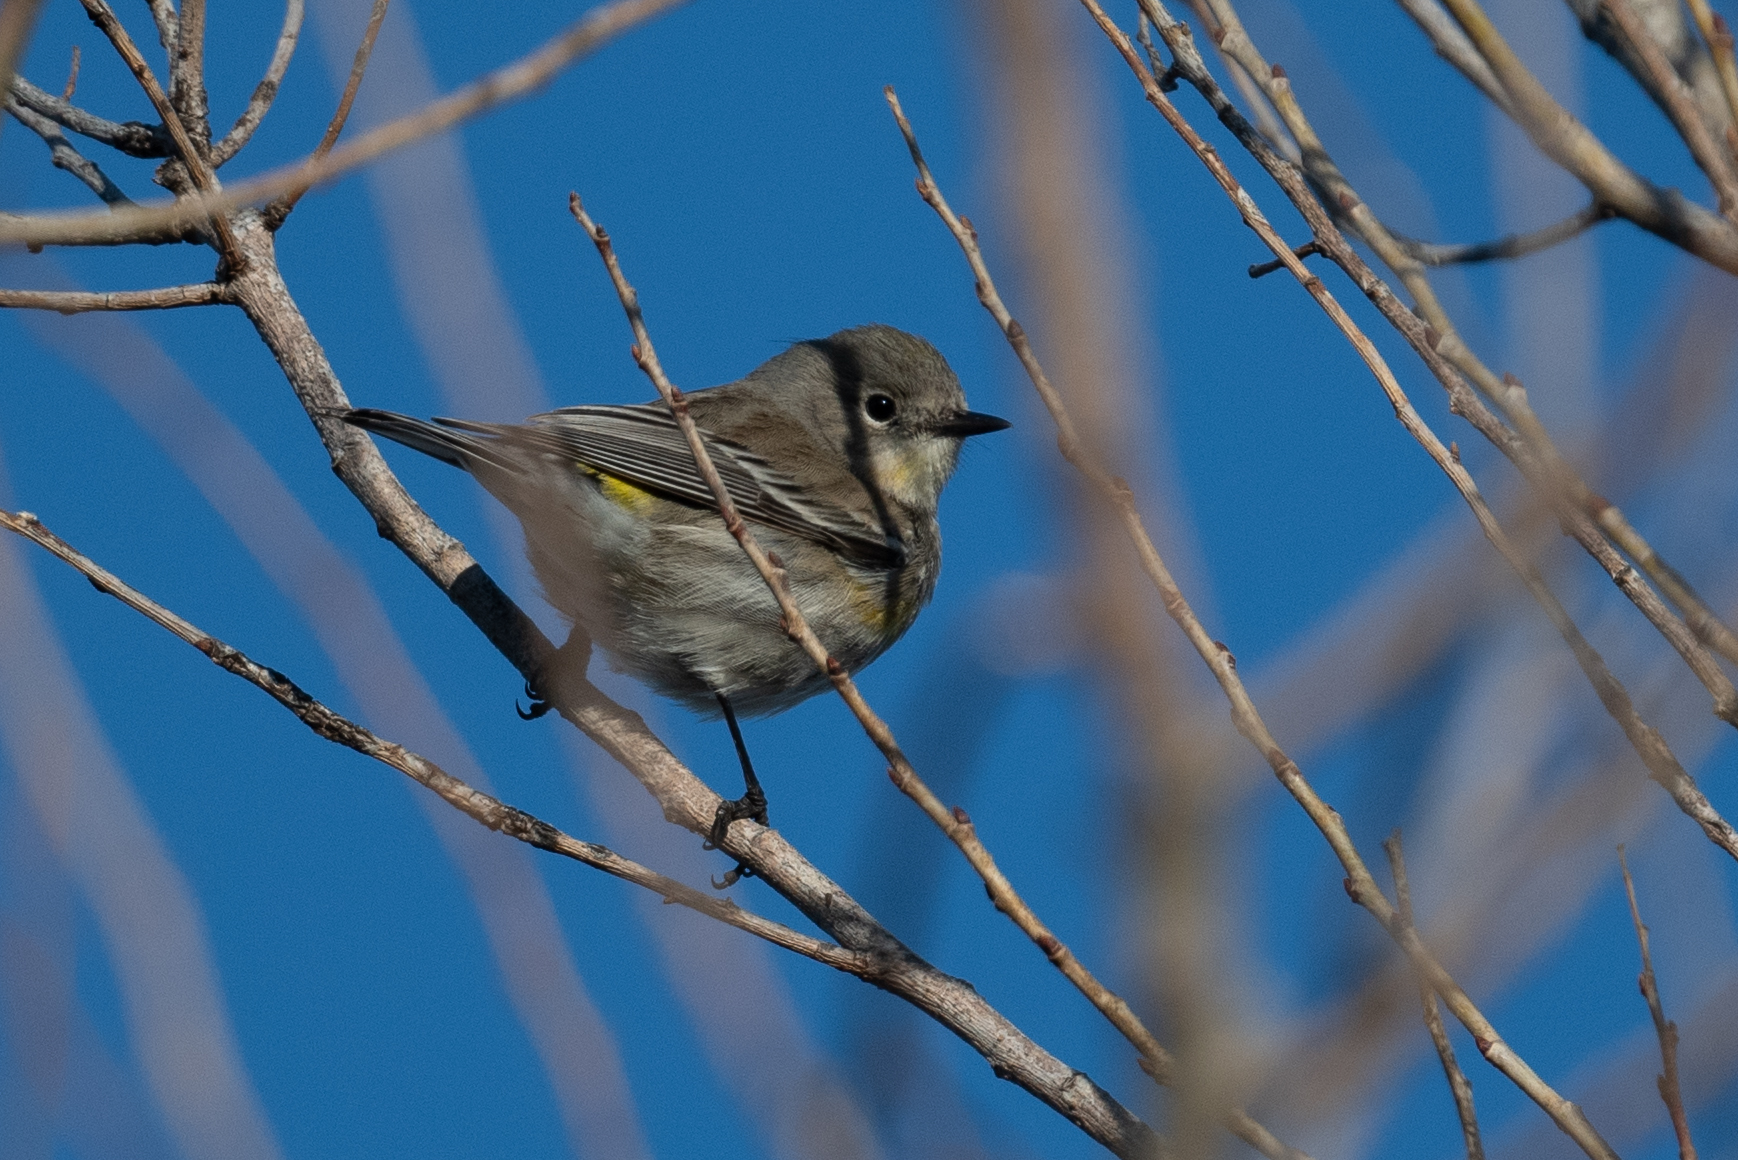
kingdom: Animalia
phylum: Chordata
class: Aves
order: Passeriformes
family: Parulidae
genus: Setophaga
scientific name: Setophaga coronata
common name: Myrtle warbler
